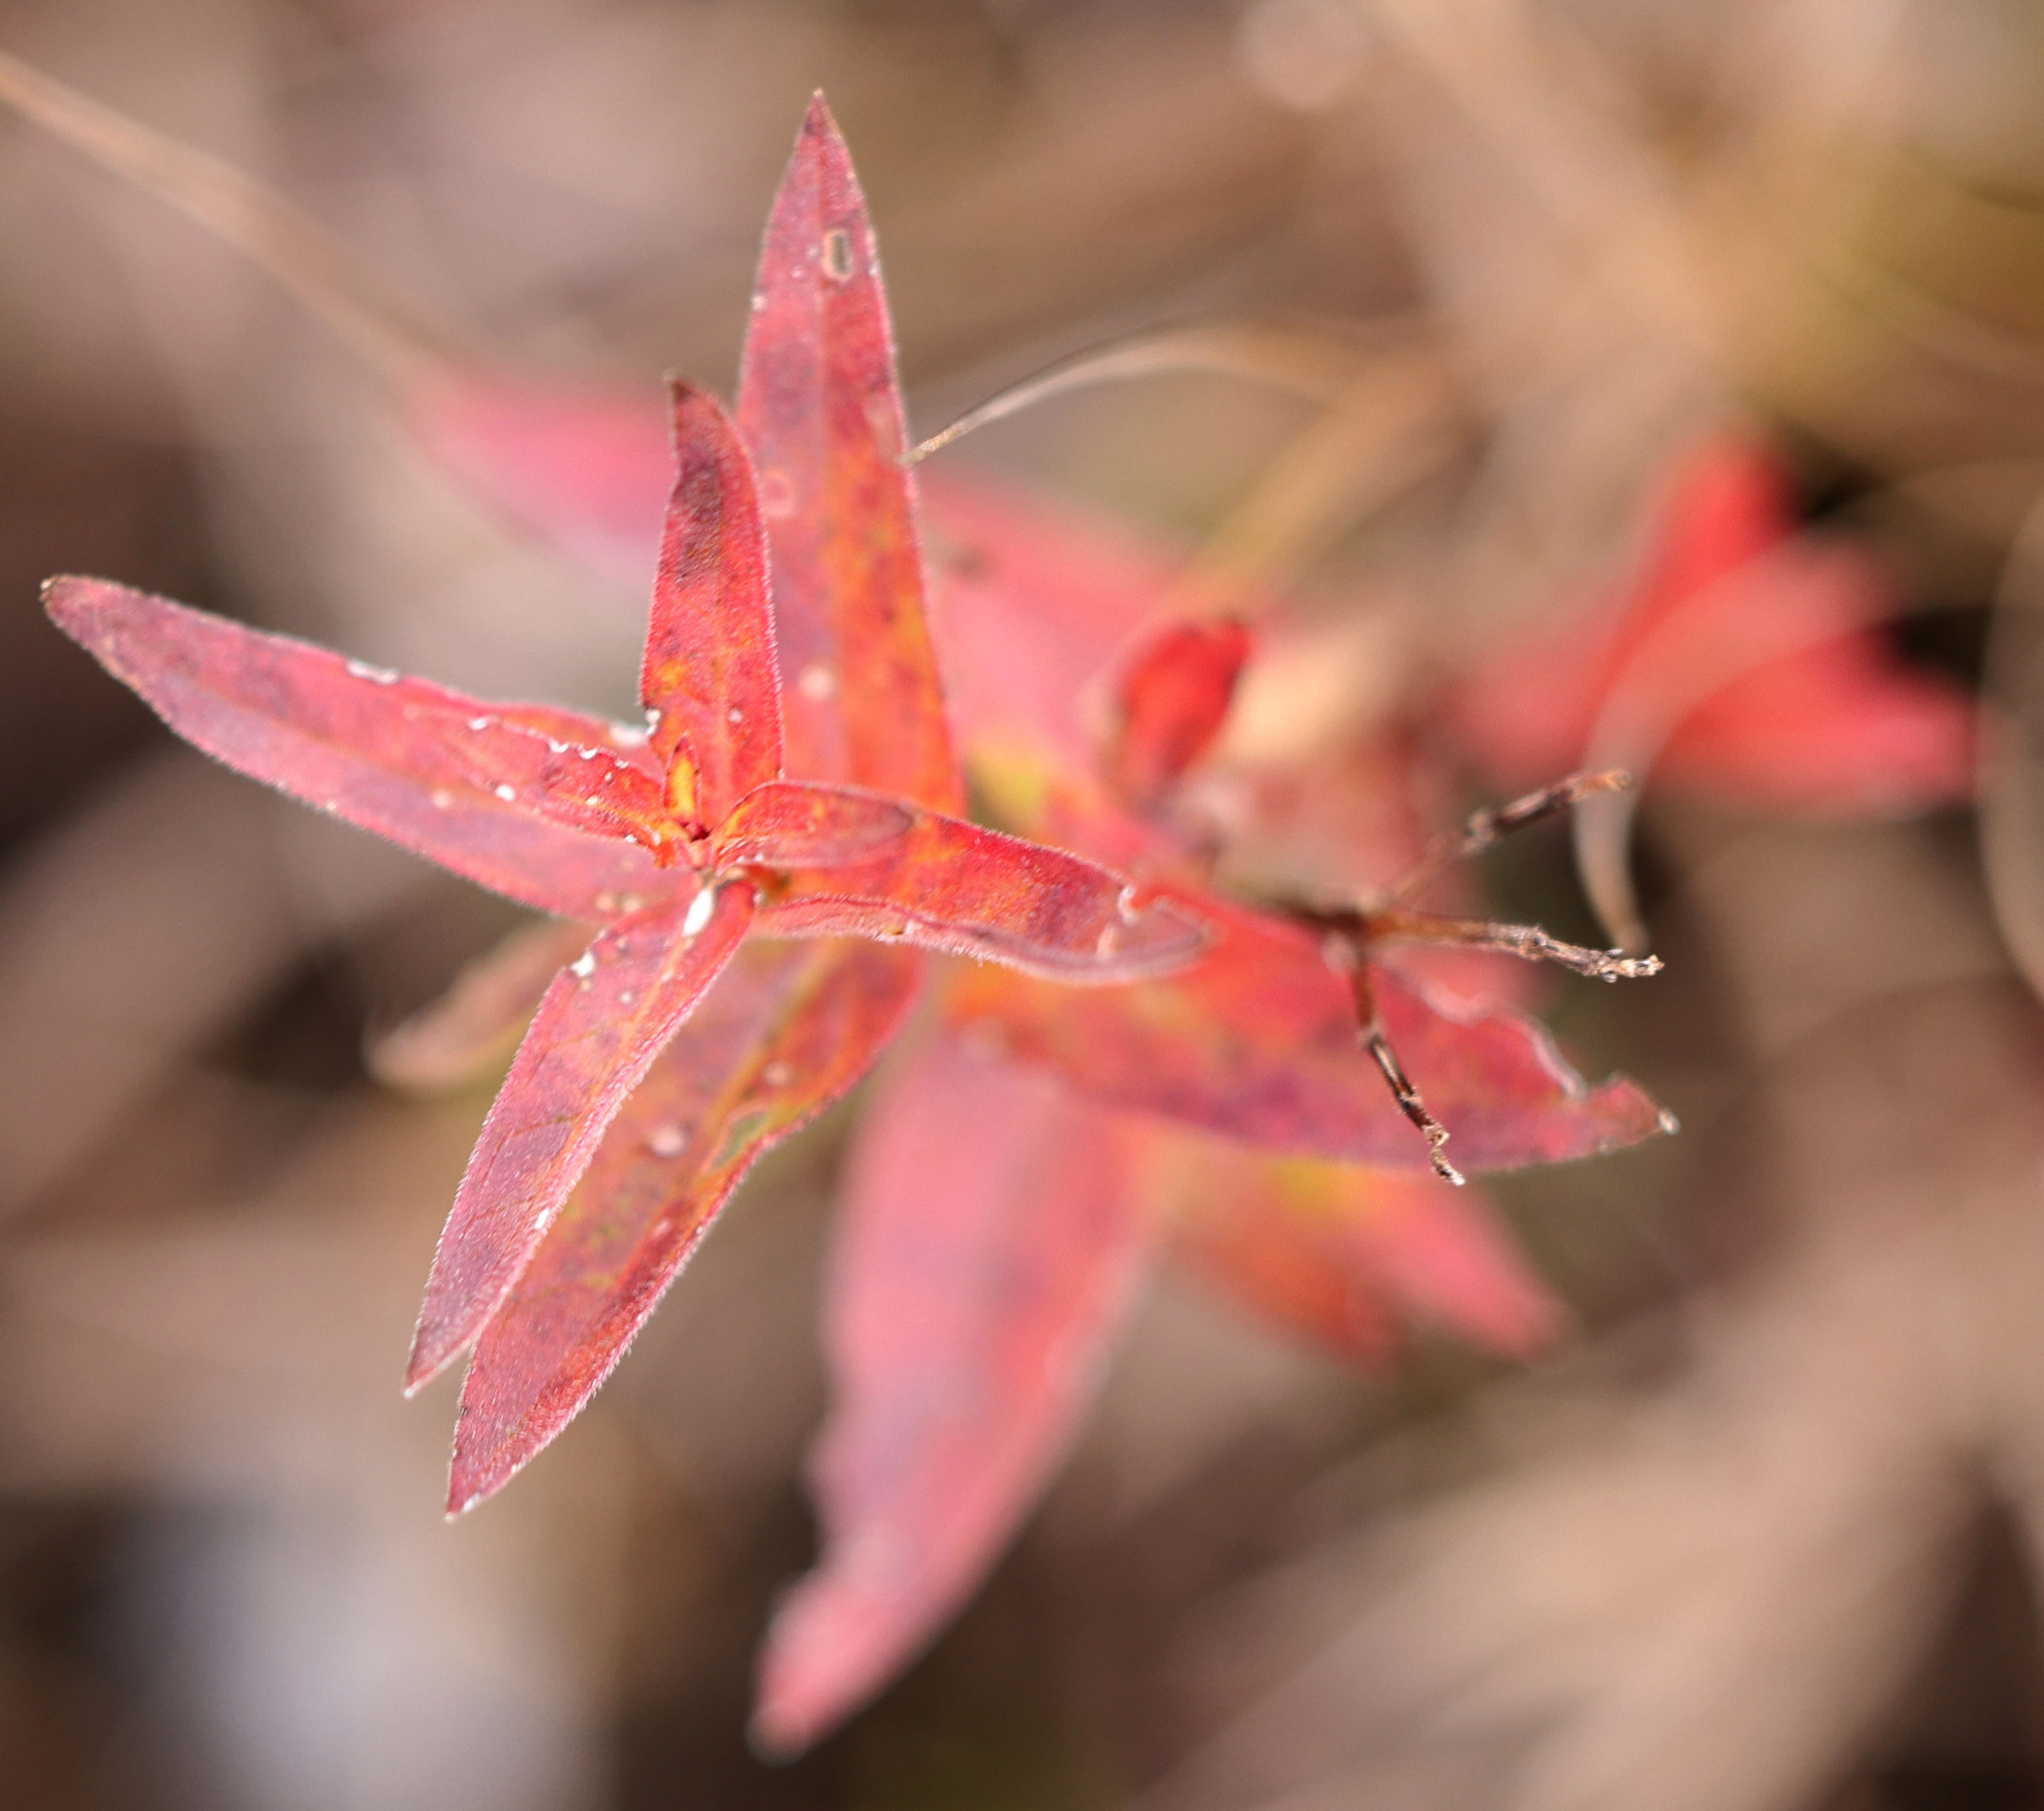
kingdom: Plantae
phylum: Tracheophyta
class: Magnoliopsida
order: Myrtales
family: Lythraceae
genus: Lythrum
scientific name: Lythrum salicaria
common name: Purple loosestrife
